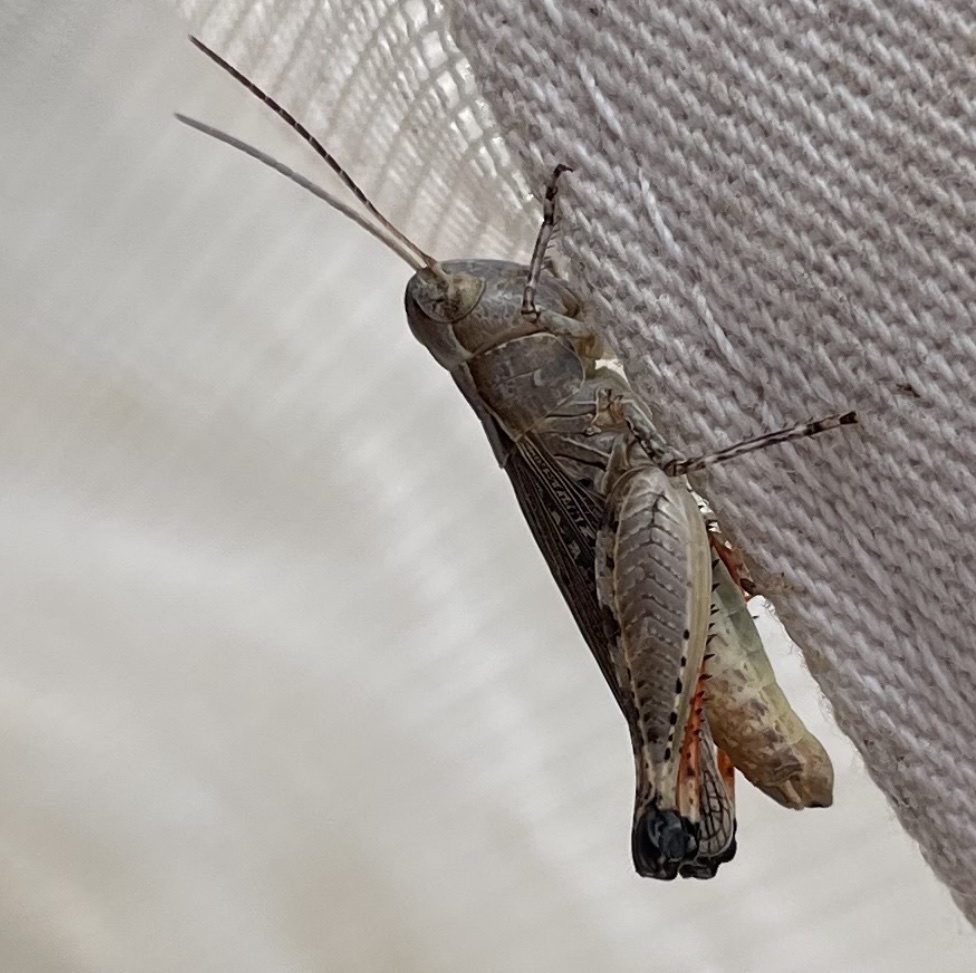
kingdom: Animalia
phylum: Arthropoda
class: Insecta
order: Orthoptera
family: Acrididae
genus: Ageneotettix
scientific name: Ageneotettix deorum
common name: White-whiskered grasshopper
